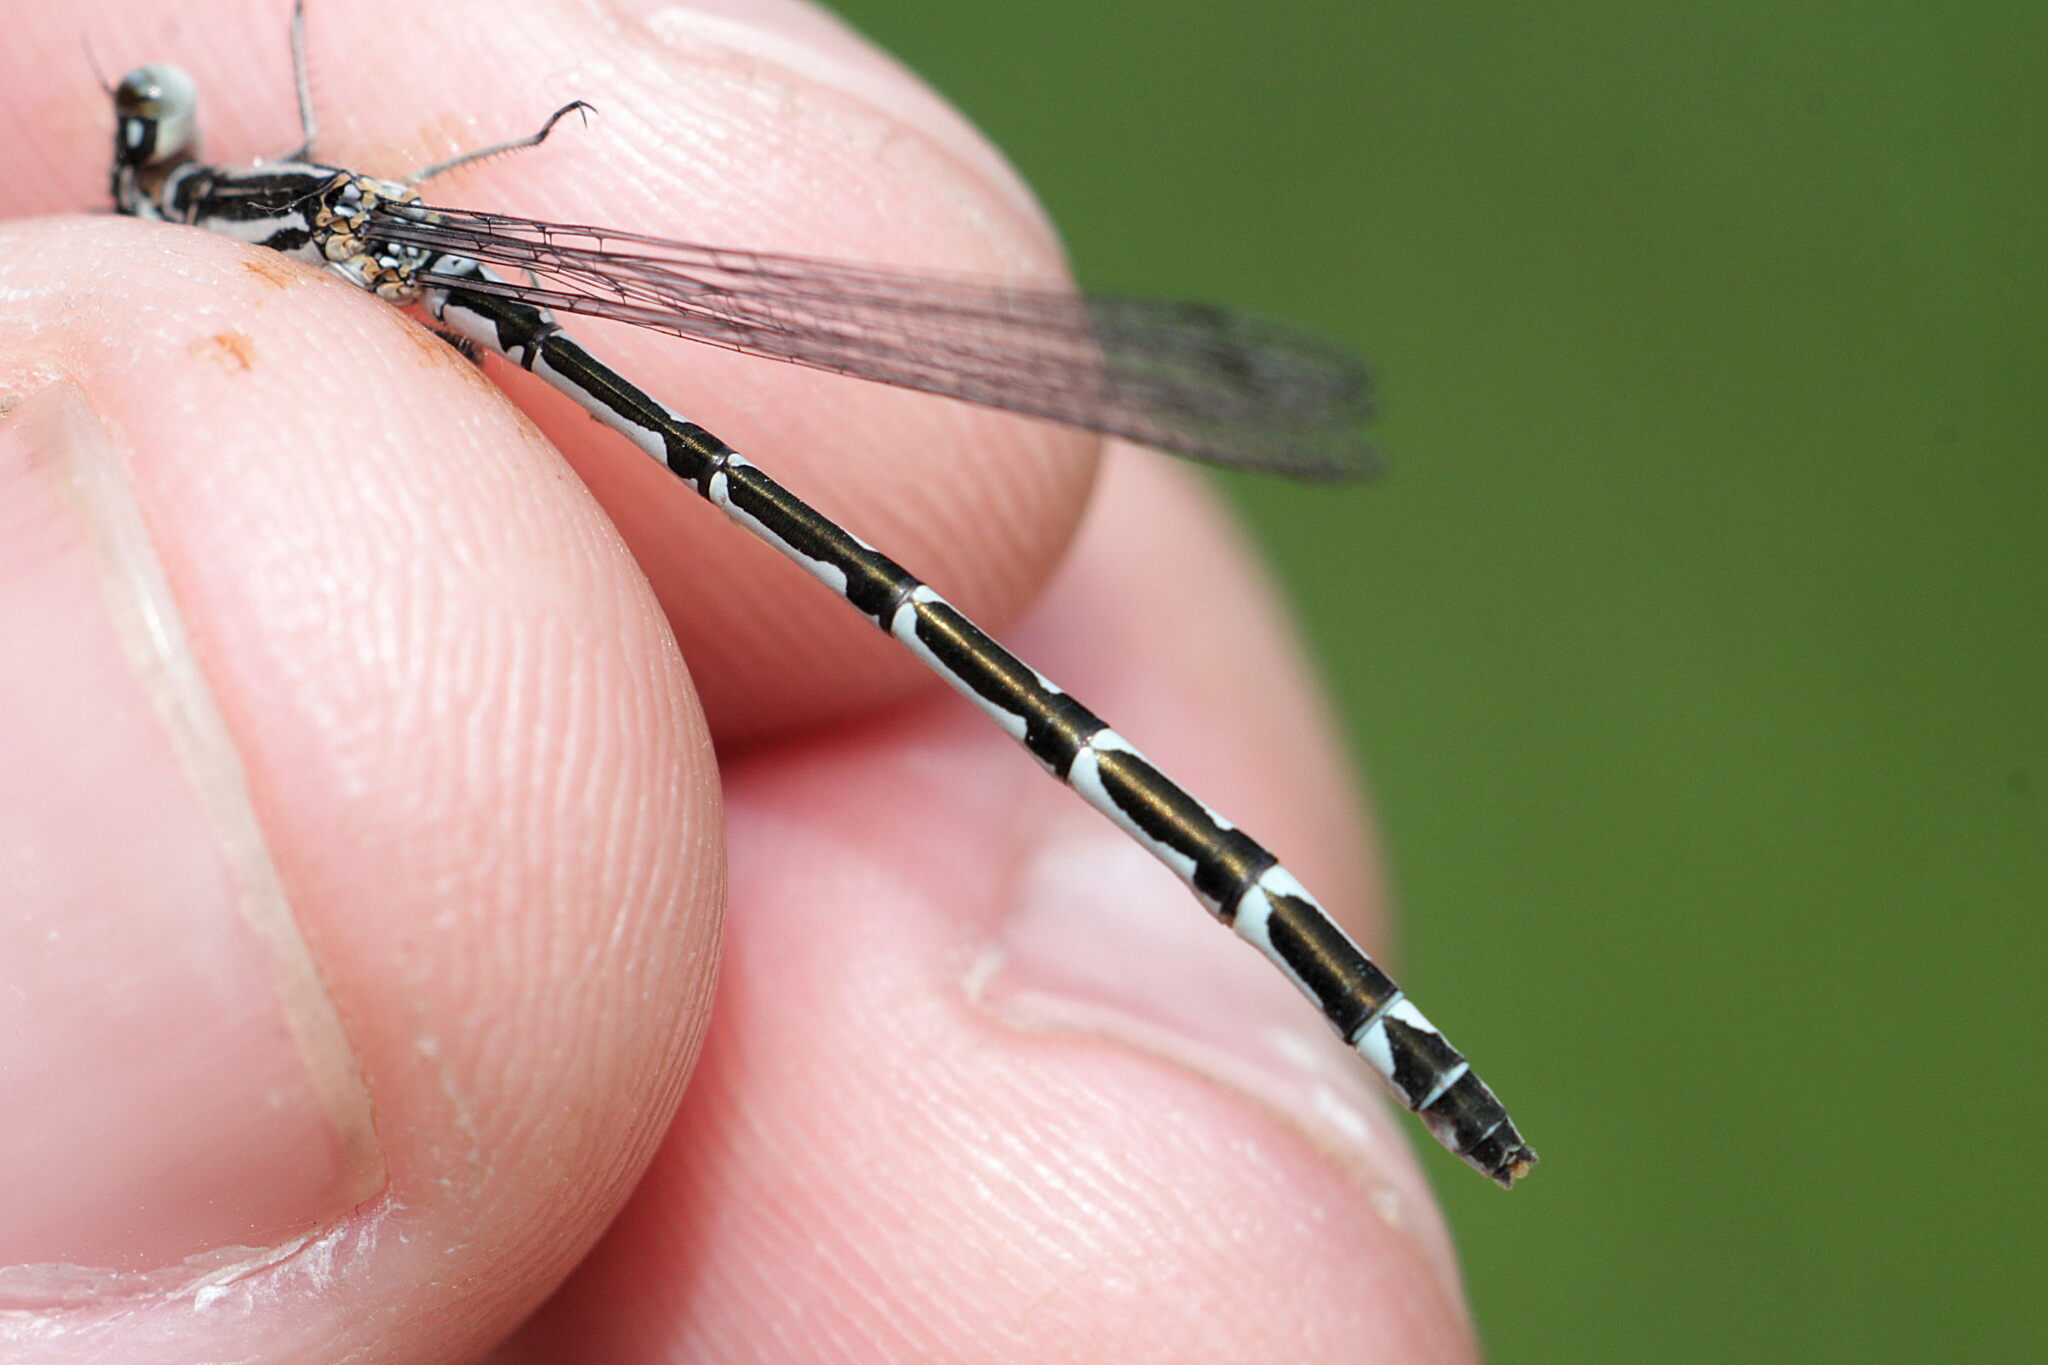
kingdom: Animalia
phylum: Arthropoda
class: Insecta
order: Odonata
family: Coenagrionidae
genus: Enallagma
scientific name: Enallagma cyathigerum
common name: Common blue damselfly
